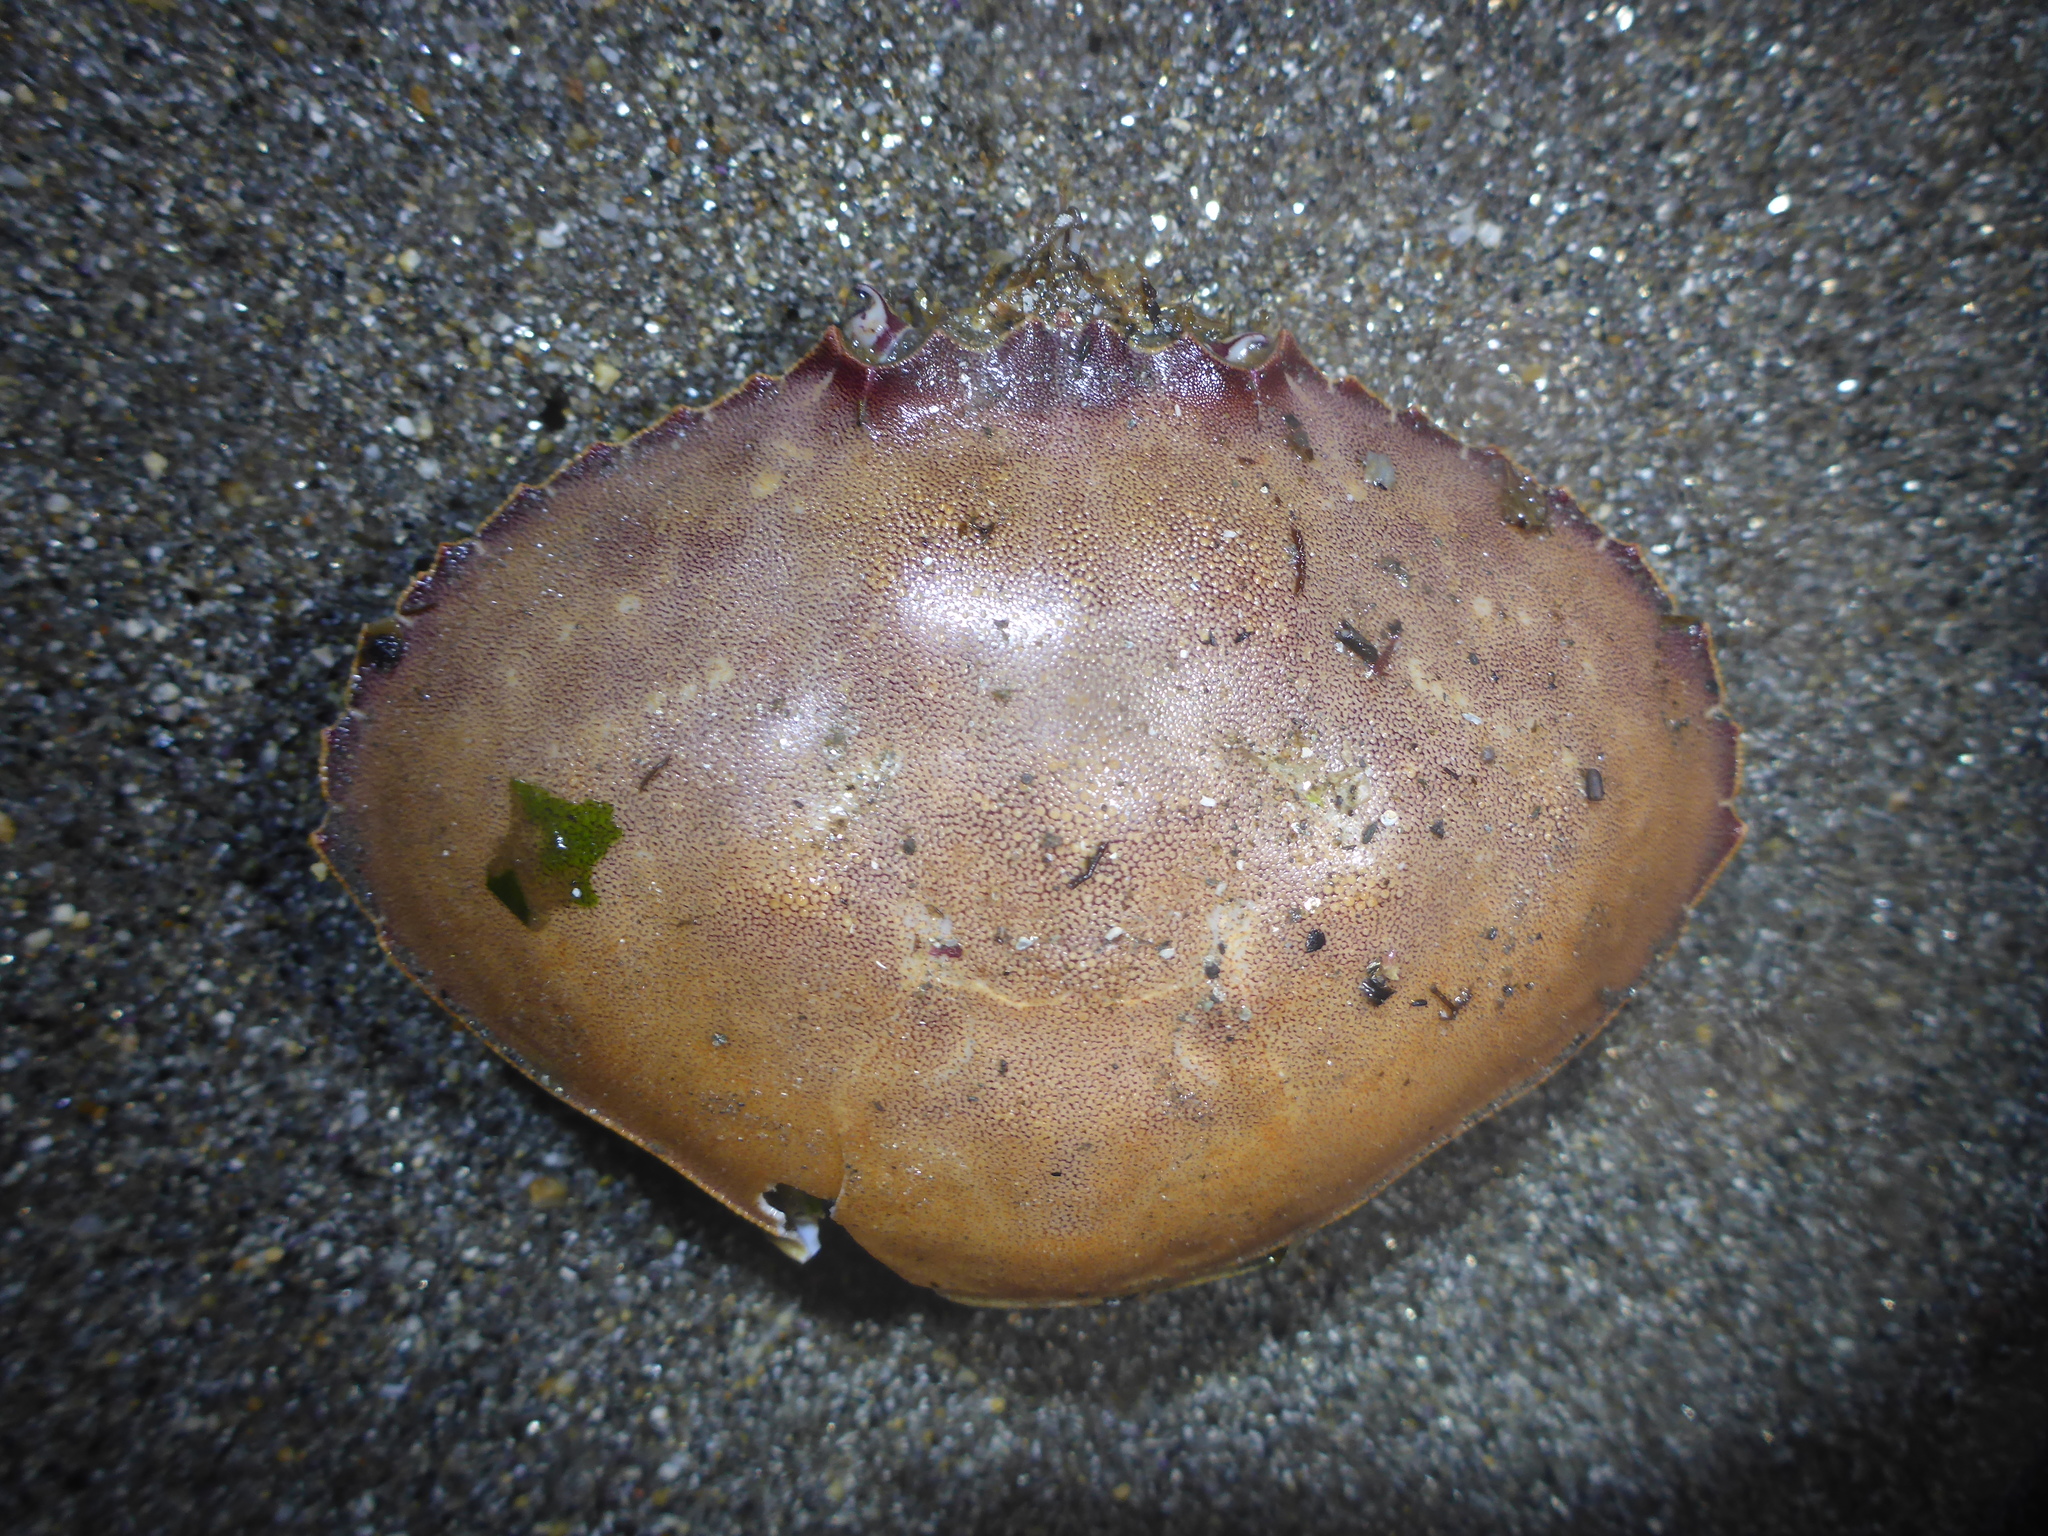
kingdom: Animalia
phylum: Arthropoda
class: Malacostraca
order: Decapoda
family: Cancridae
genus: Metacarcinus
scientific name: Metacarcinus gracilis
